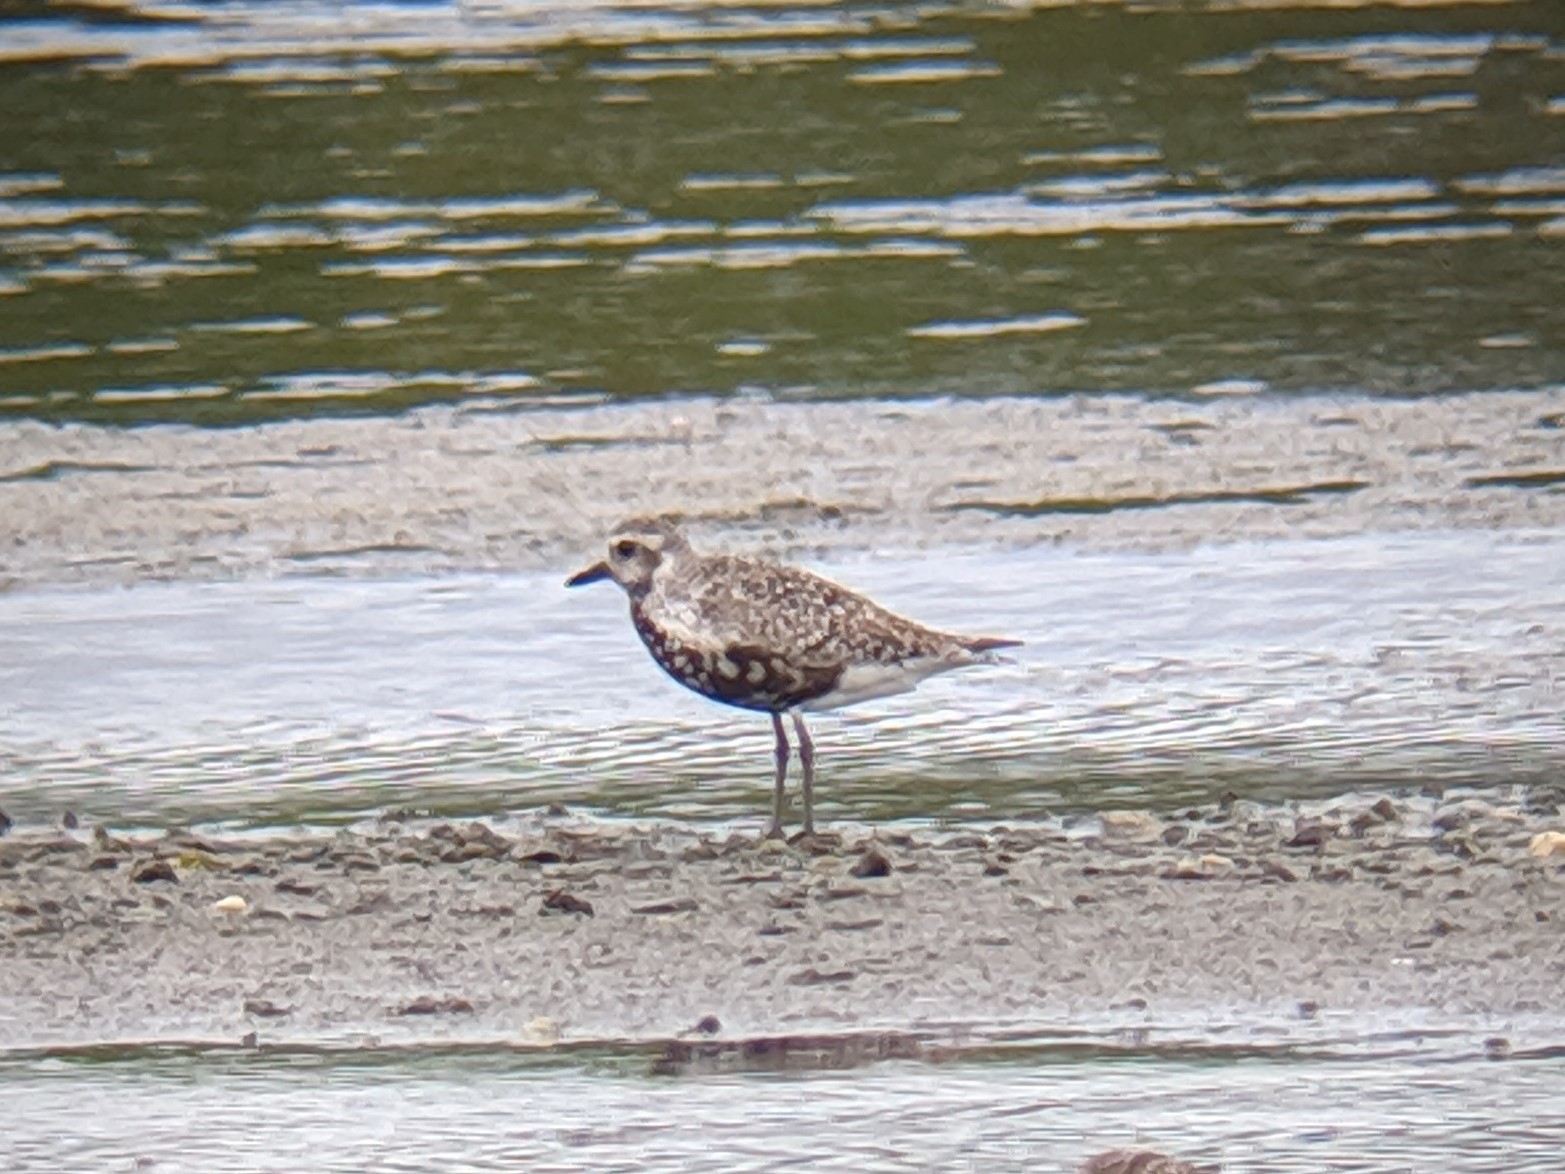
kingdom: Animalia
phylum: Chordata
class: Aves
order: Charadriiformes
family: Charadriidae
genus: Pluvialis
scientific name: Pluvialis squatarola
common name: Grey plover
